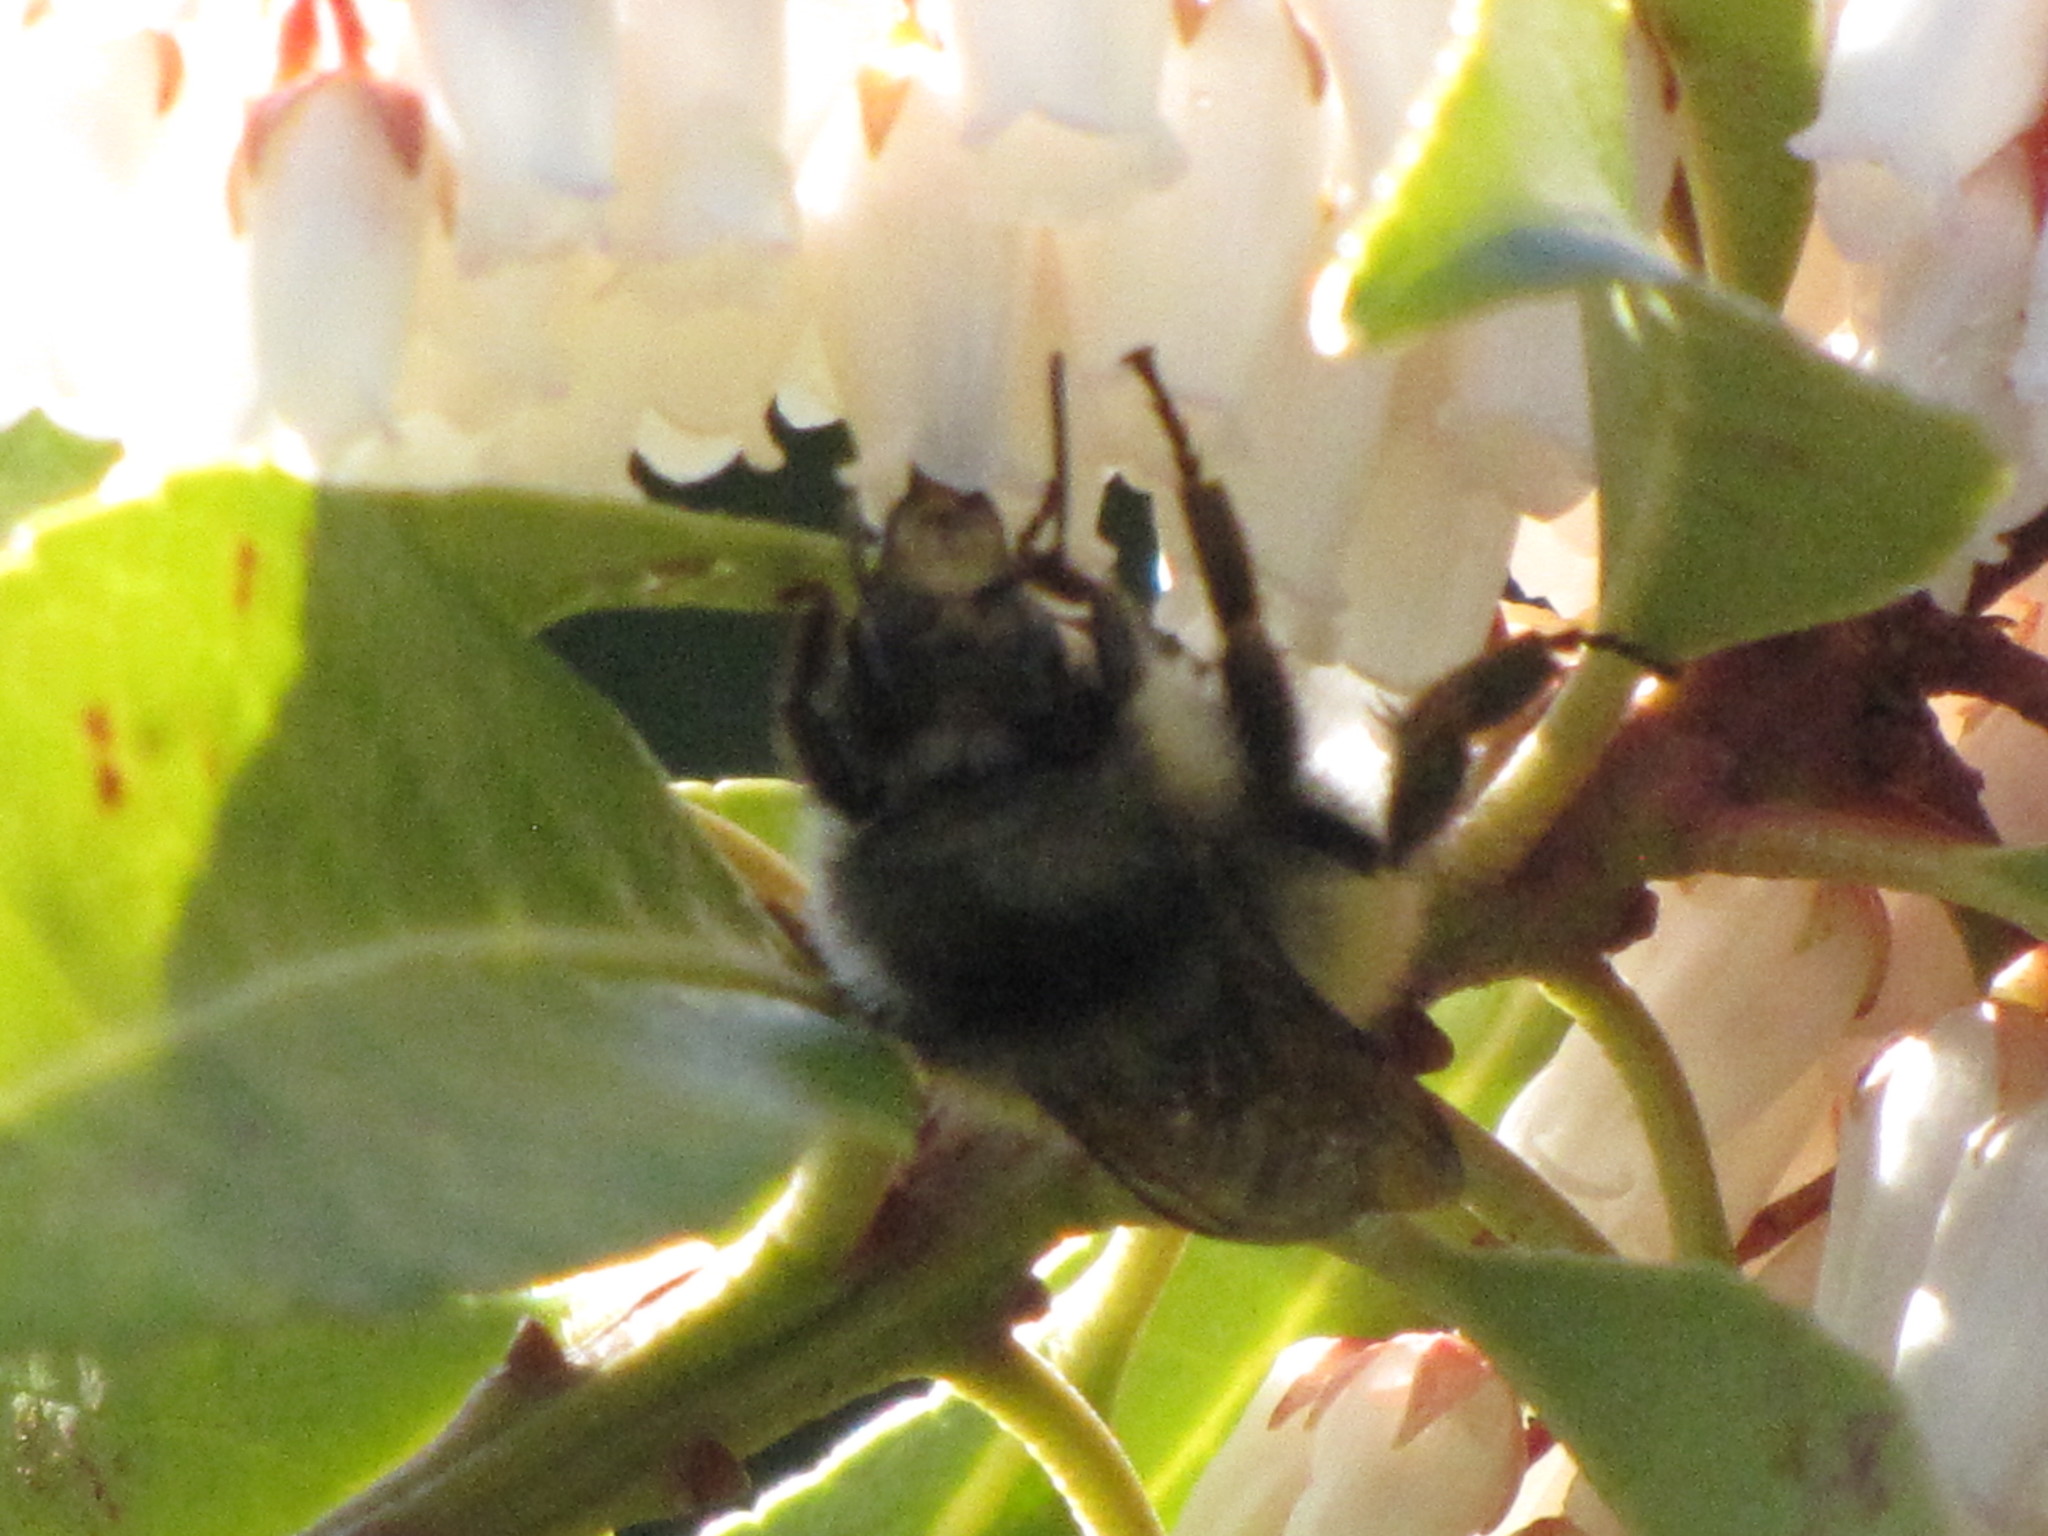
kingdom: Animalia
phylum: Arthropoda
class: Insecta
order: Hymenoptera
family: Apidae
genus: Bombus
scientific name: Bombus flavifrons
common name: Yellow head bumble bee
